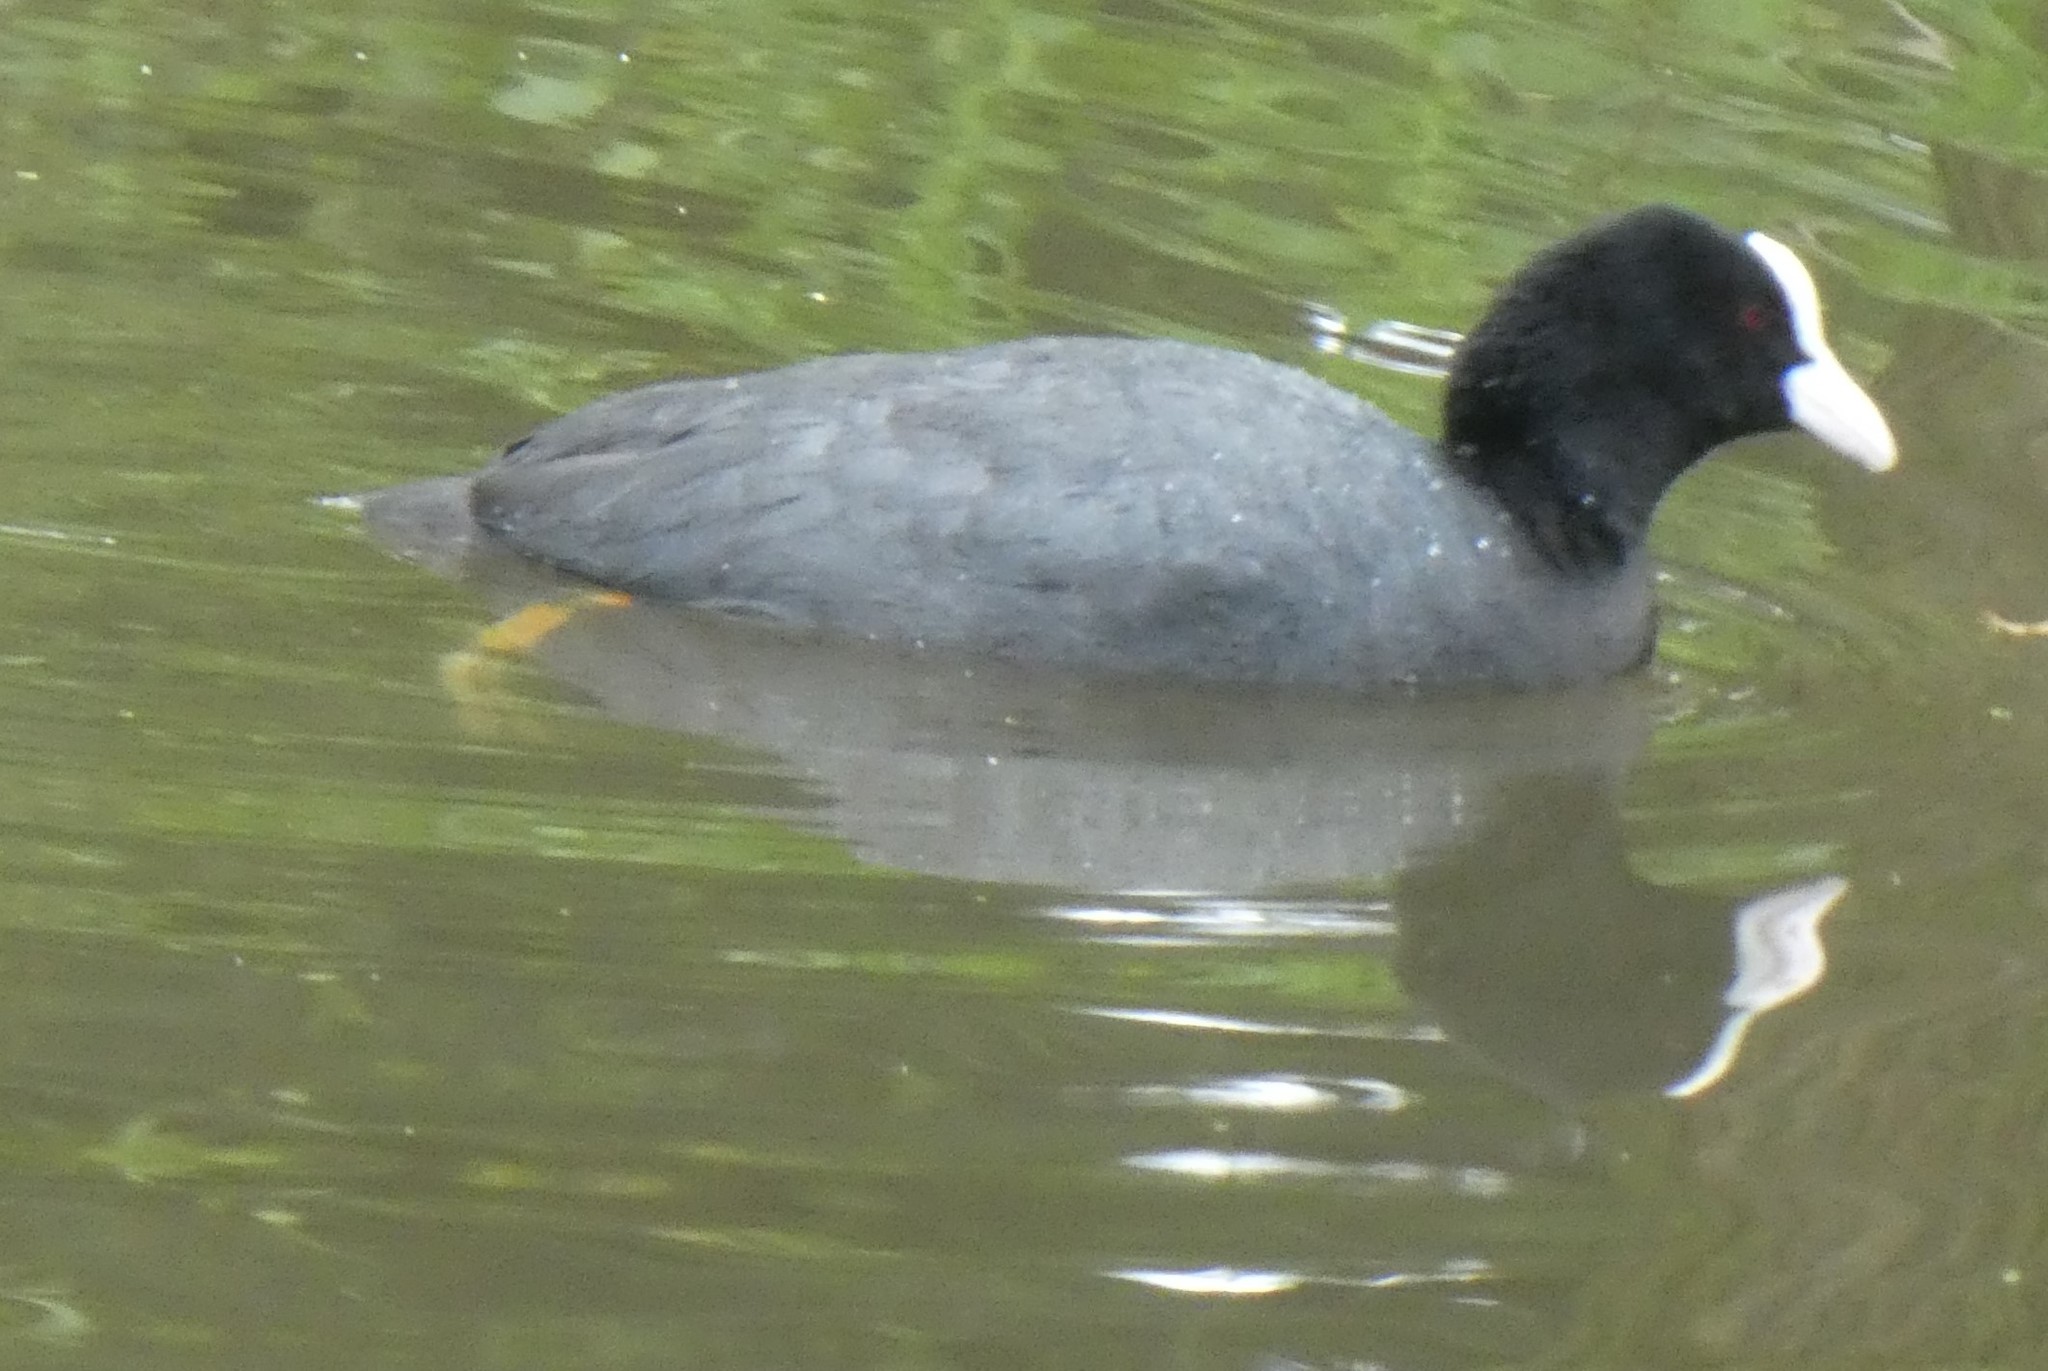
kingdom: Animalia
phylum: Chordata
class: Aves
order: Gruiformes
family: Rallidae
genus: Fulica
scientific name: Fulica atra
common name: Eurasian coot
